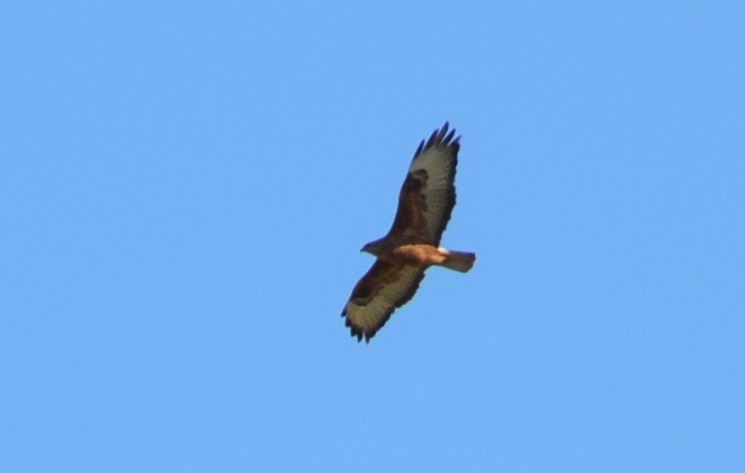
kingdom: Animalia
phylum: Chordata
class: Aves
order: Accipitriformes
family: Accipitridae
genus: Buteo
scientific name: Buteo rufinus
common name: Long-legged buzzard
